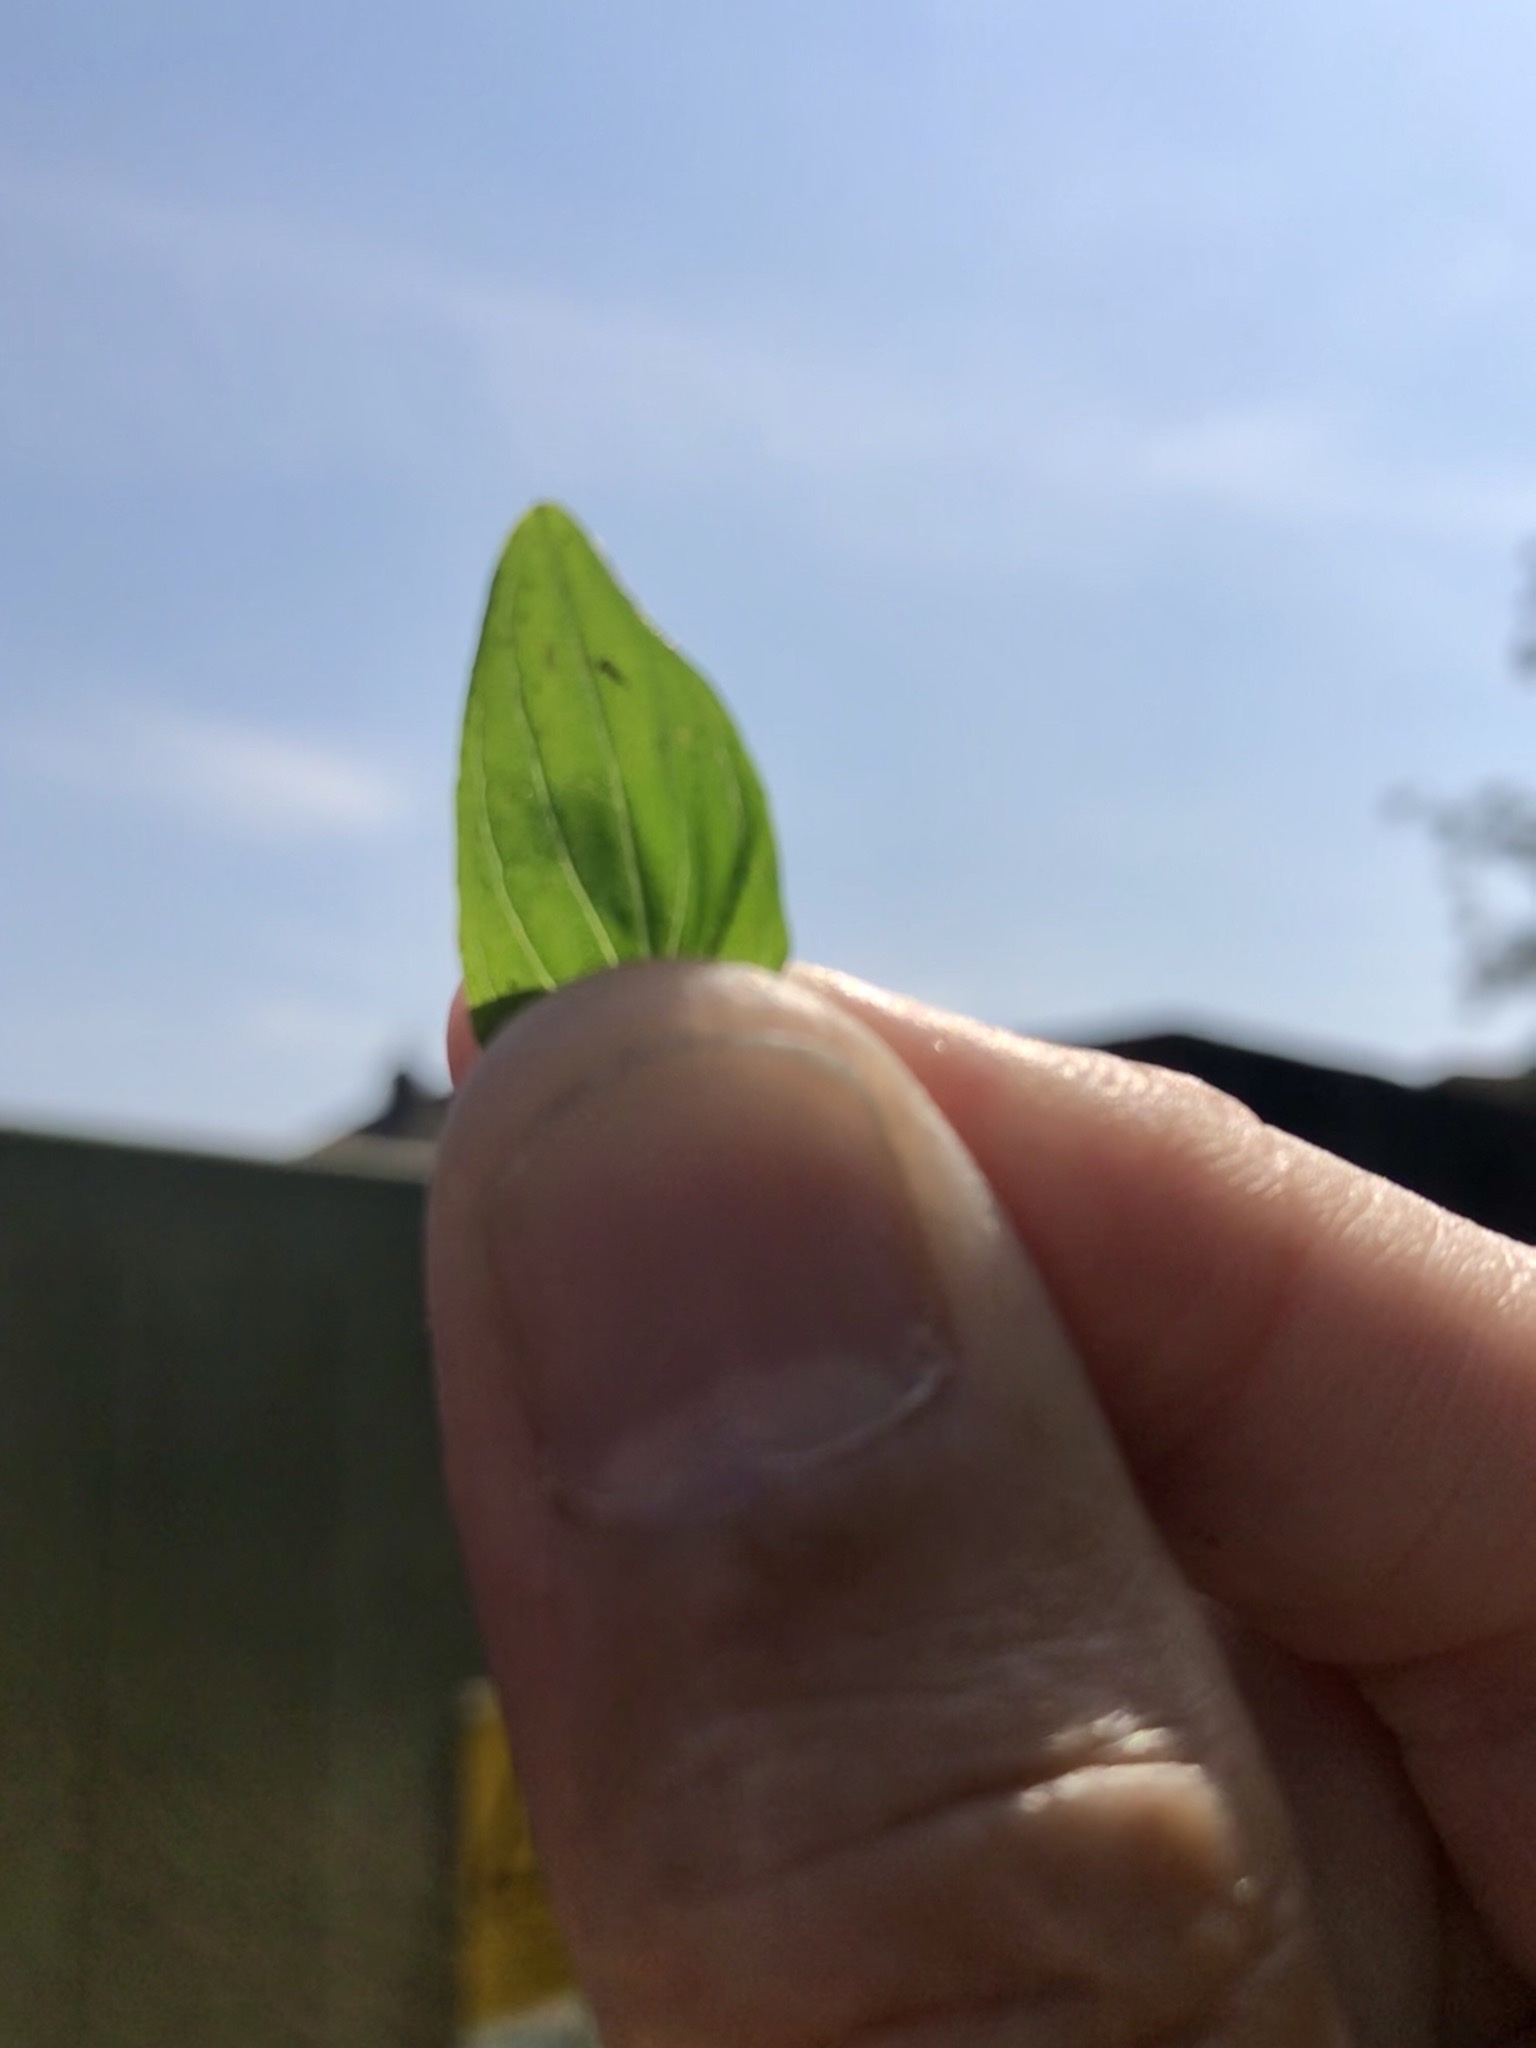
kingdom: Plantae
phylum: Tracheophyta
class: Magnoliopsida
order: Malpighiales
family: Hypericaceae
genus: Hypericum
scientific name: Hypericum tetrapterum
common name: Square-stalked st. john's-wort
